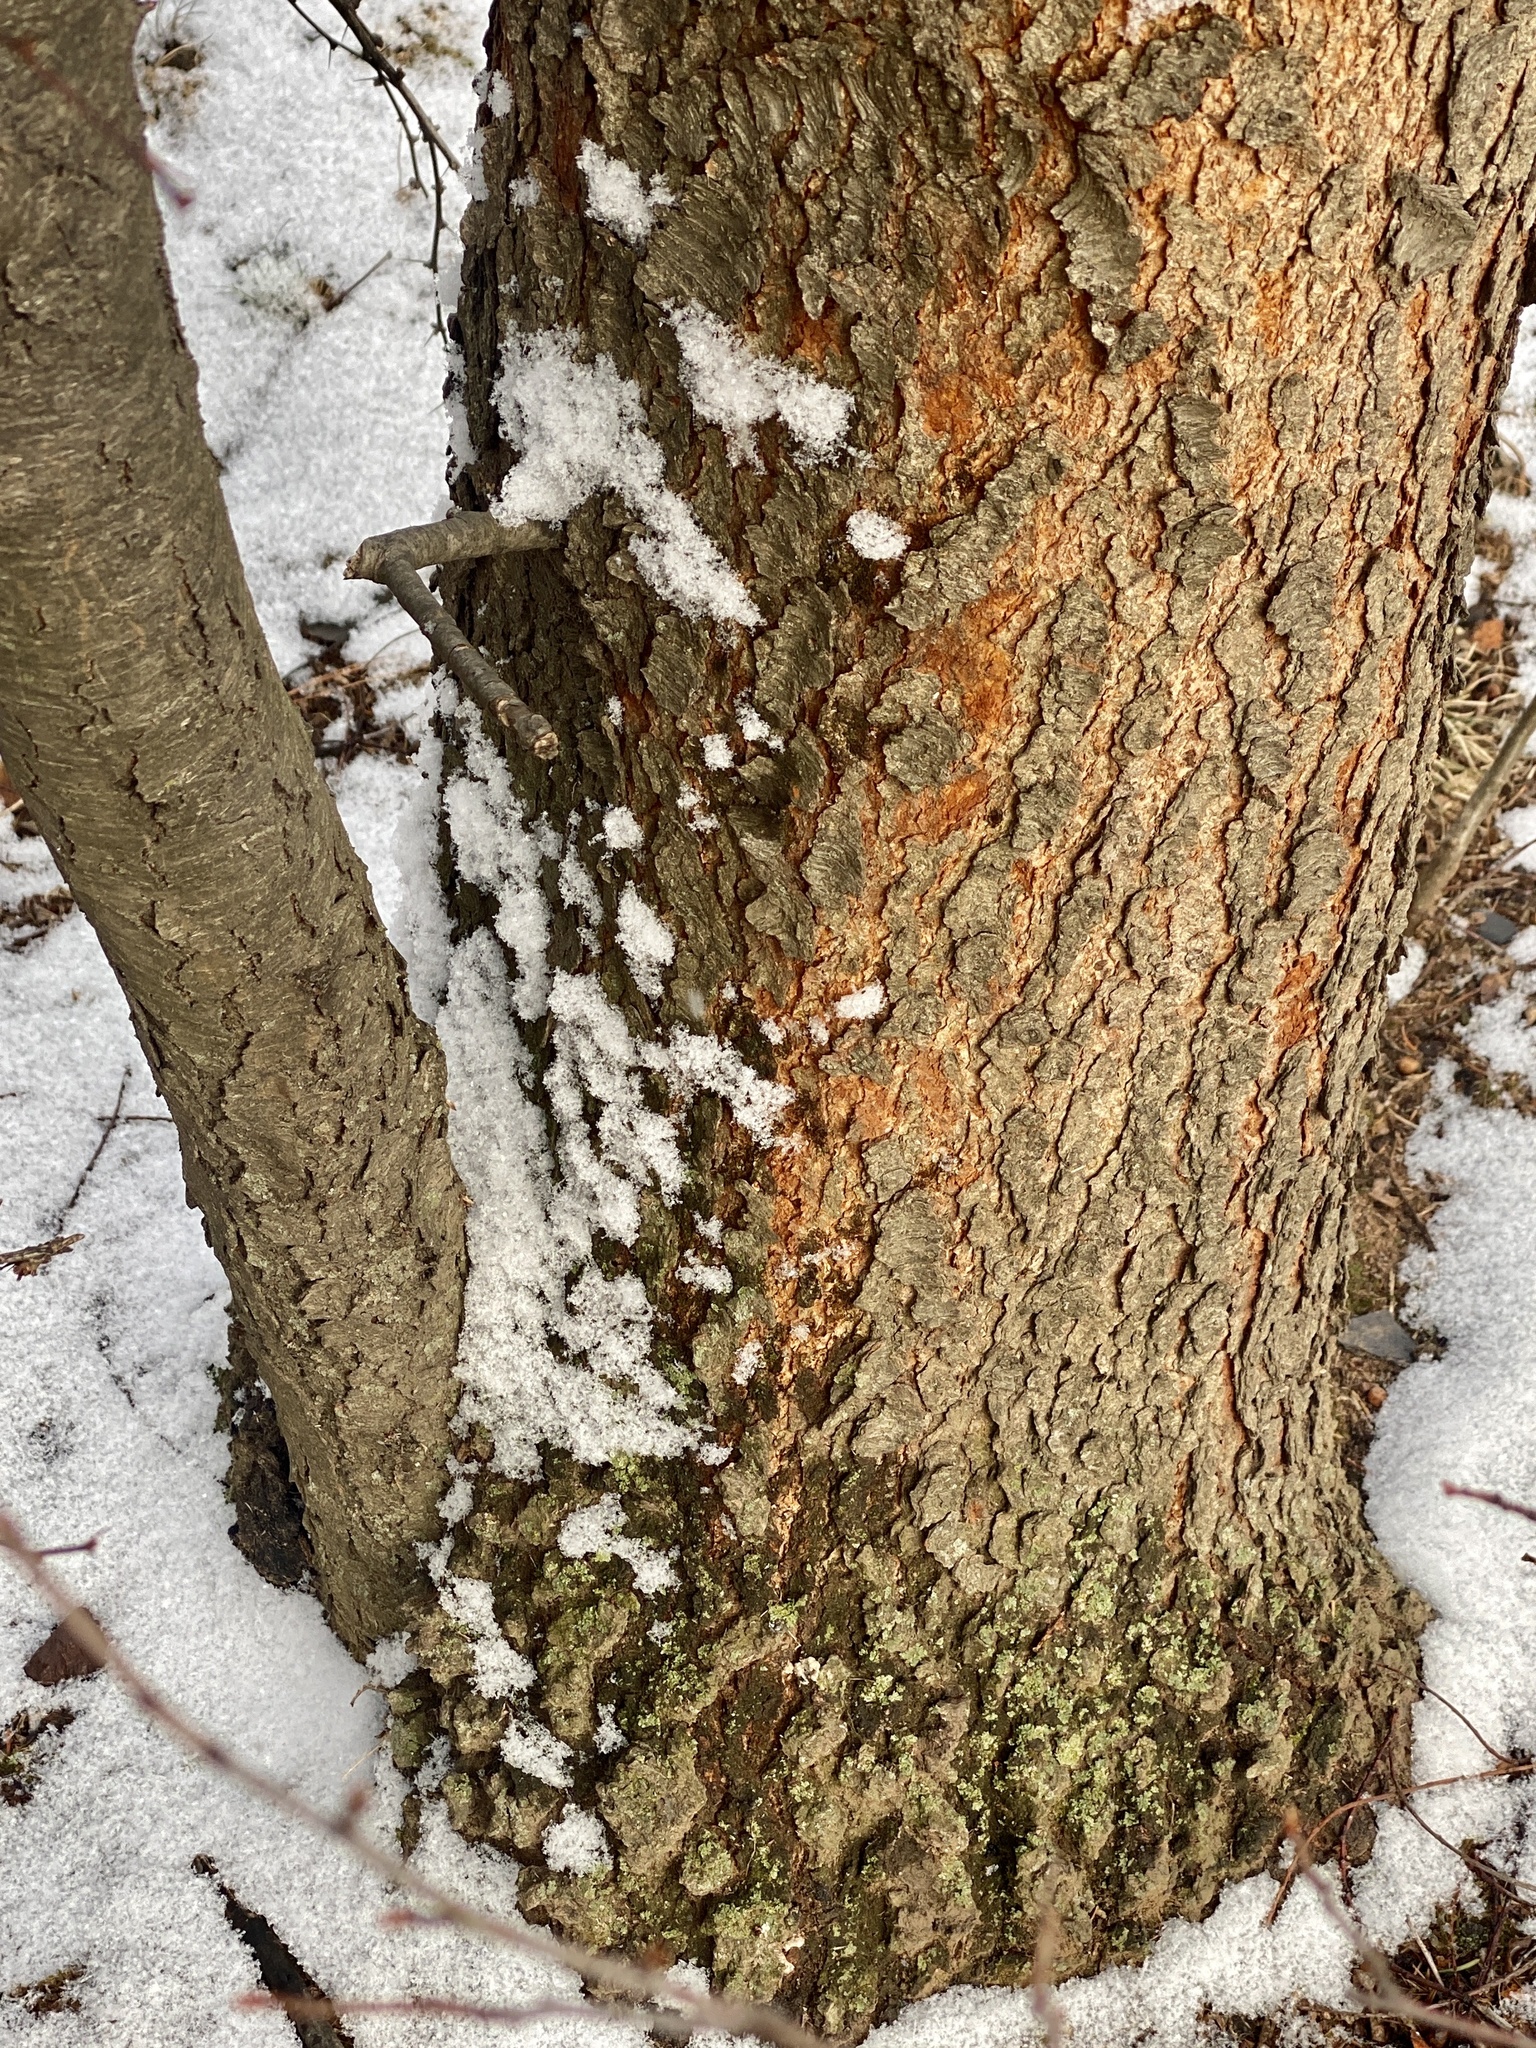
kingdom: Plantae
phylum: Tracheophyta
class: Magnoliopsida
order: Rosales
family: Rosaceae
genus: Prunus
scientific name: Prunus serotina
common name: Black cherry
